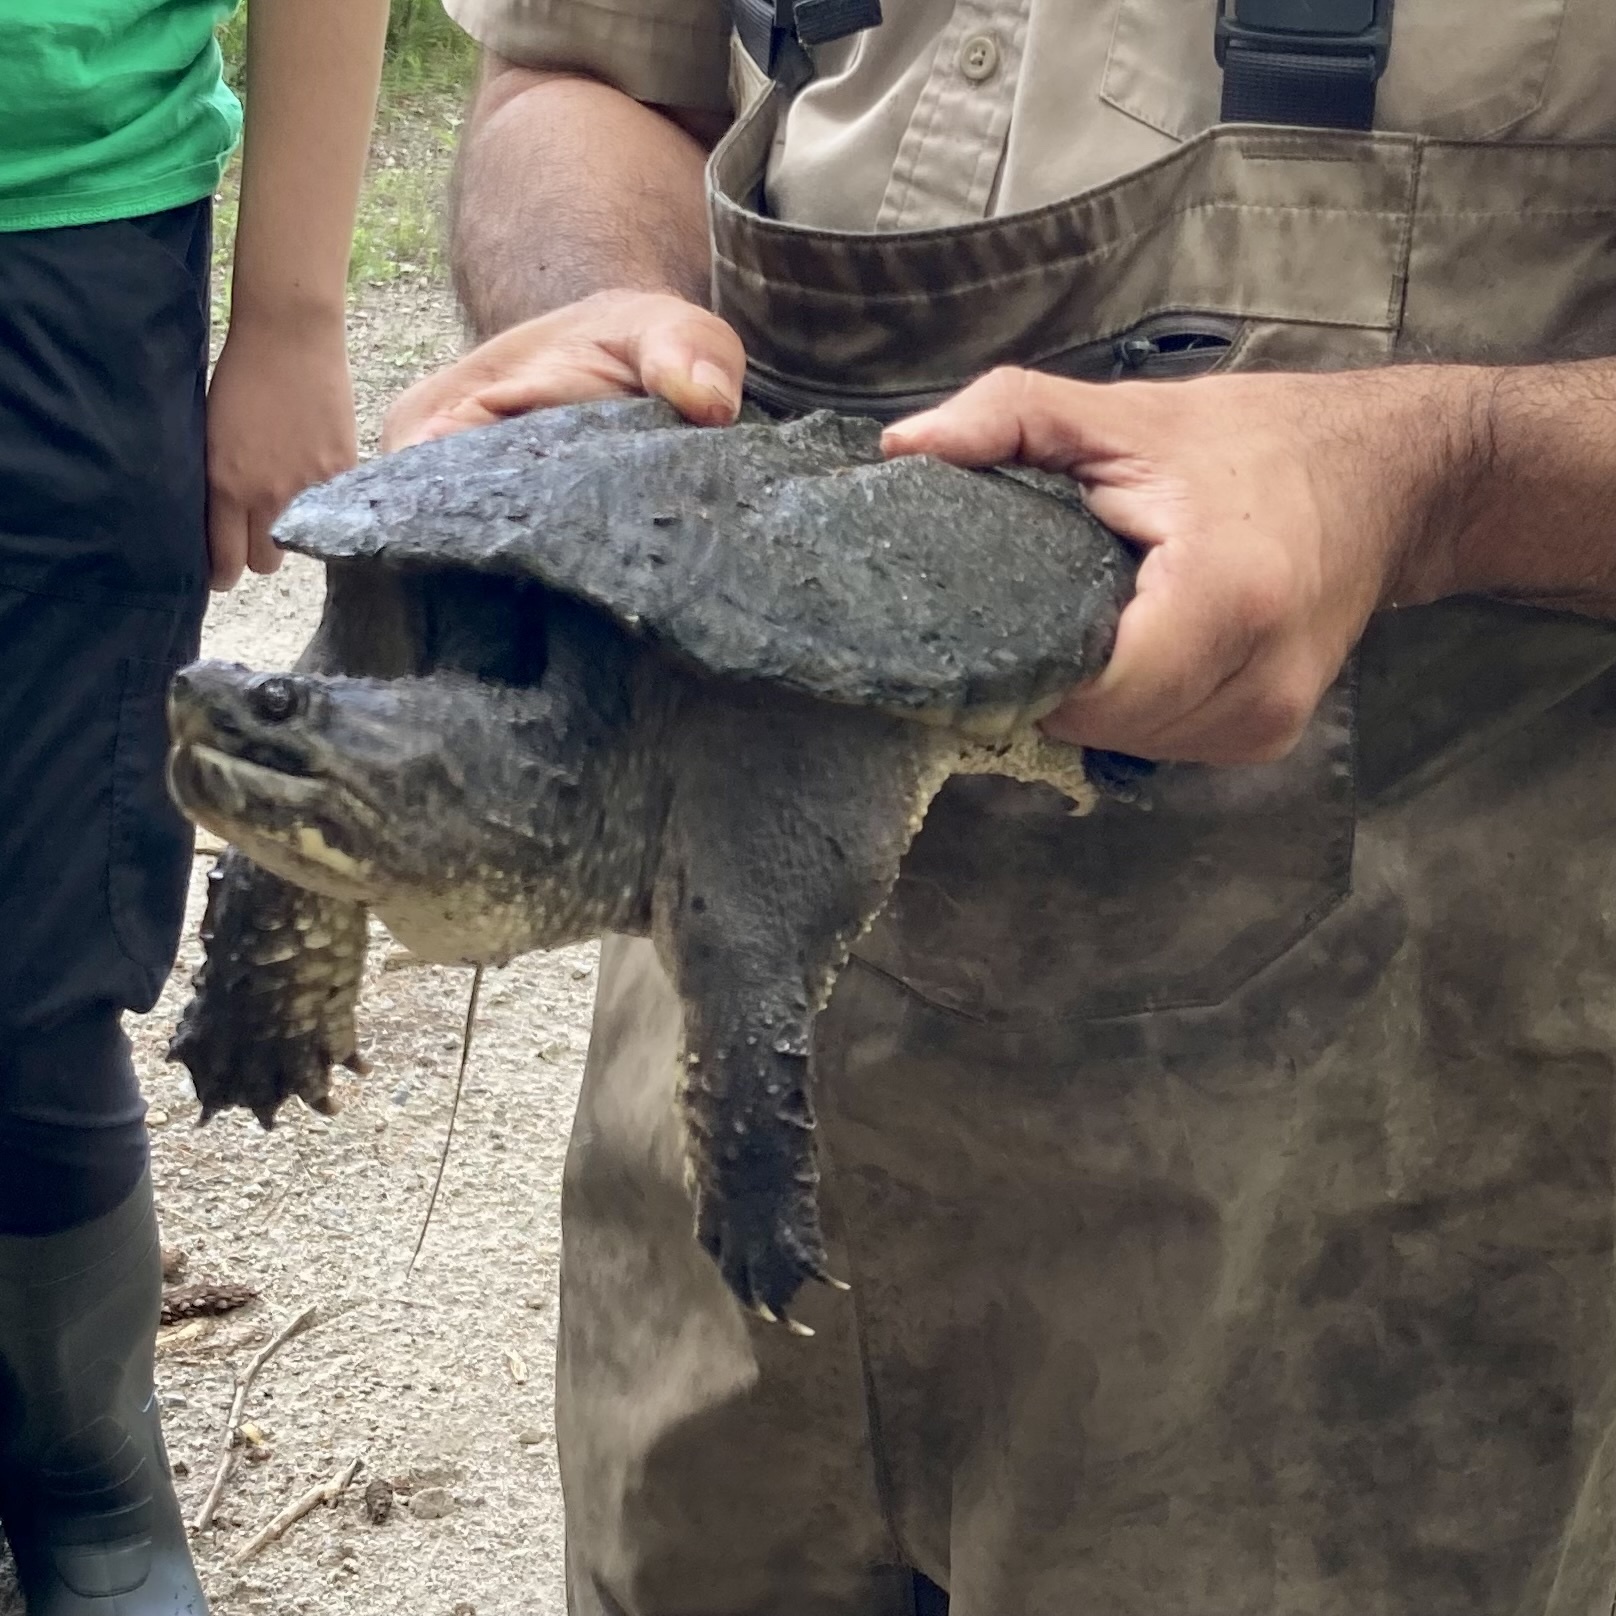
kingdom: Animalia
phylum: Chordata
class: Testudines
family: Chelydridae
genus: Chelydra
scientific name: Chelydra serpentina
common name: Common snapping turtle
